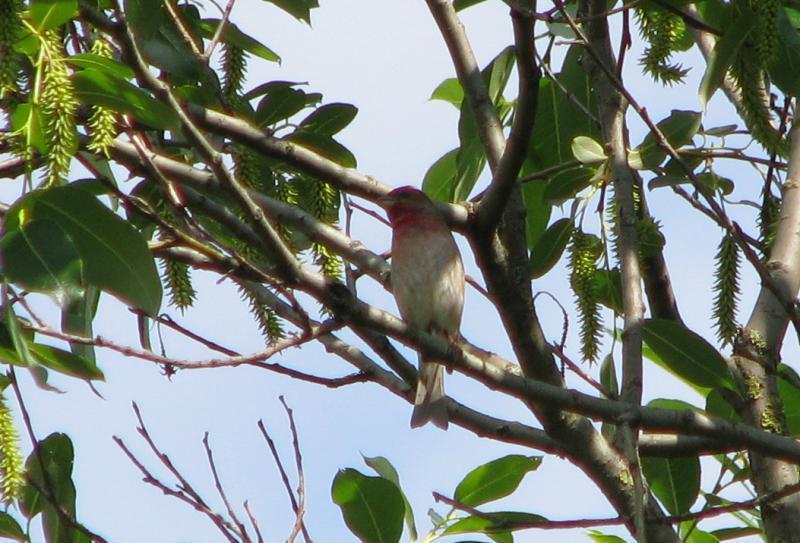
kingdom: Animalia
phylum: Chordata
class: Aves
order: Passeriformes
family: Fringillidae
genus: Carpodacus
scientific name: Carpodacus erythrinus
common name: Common rosefinch
